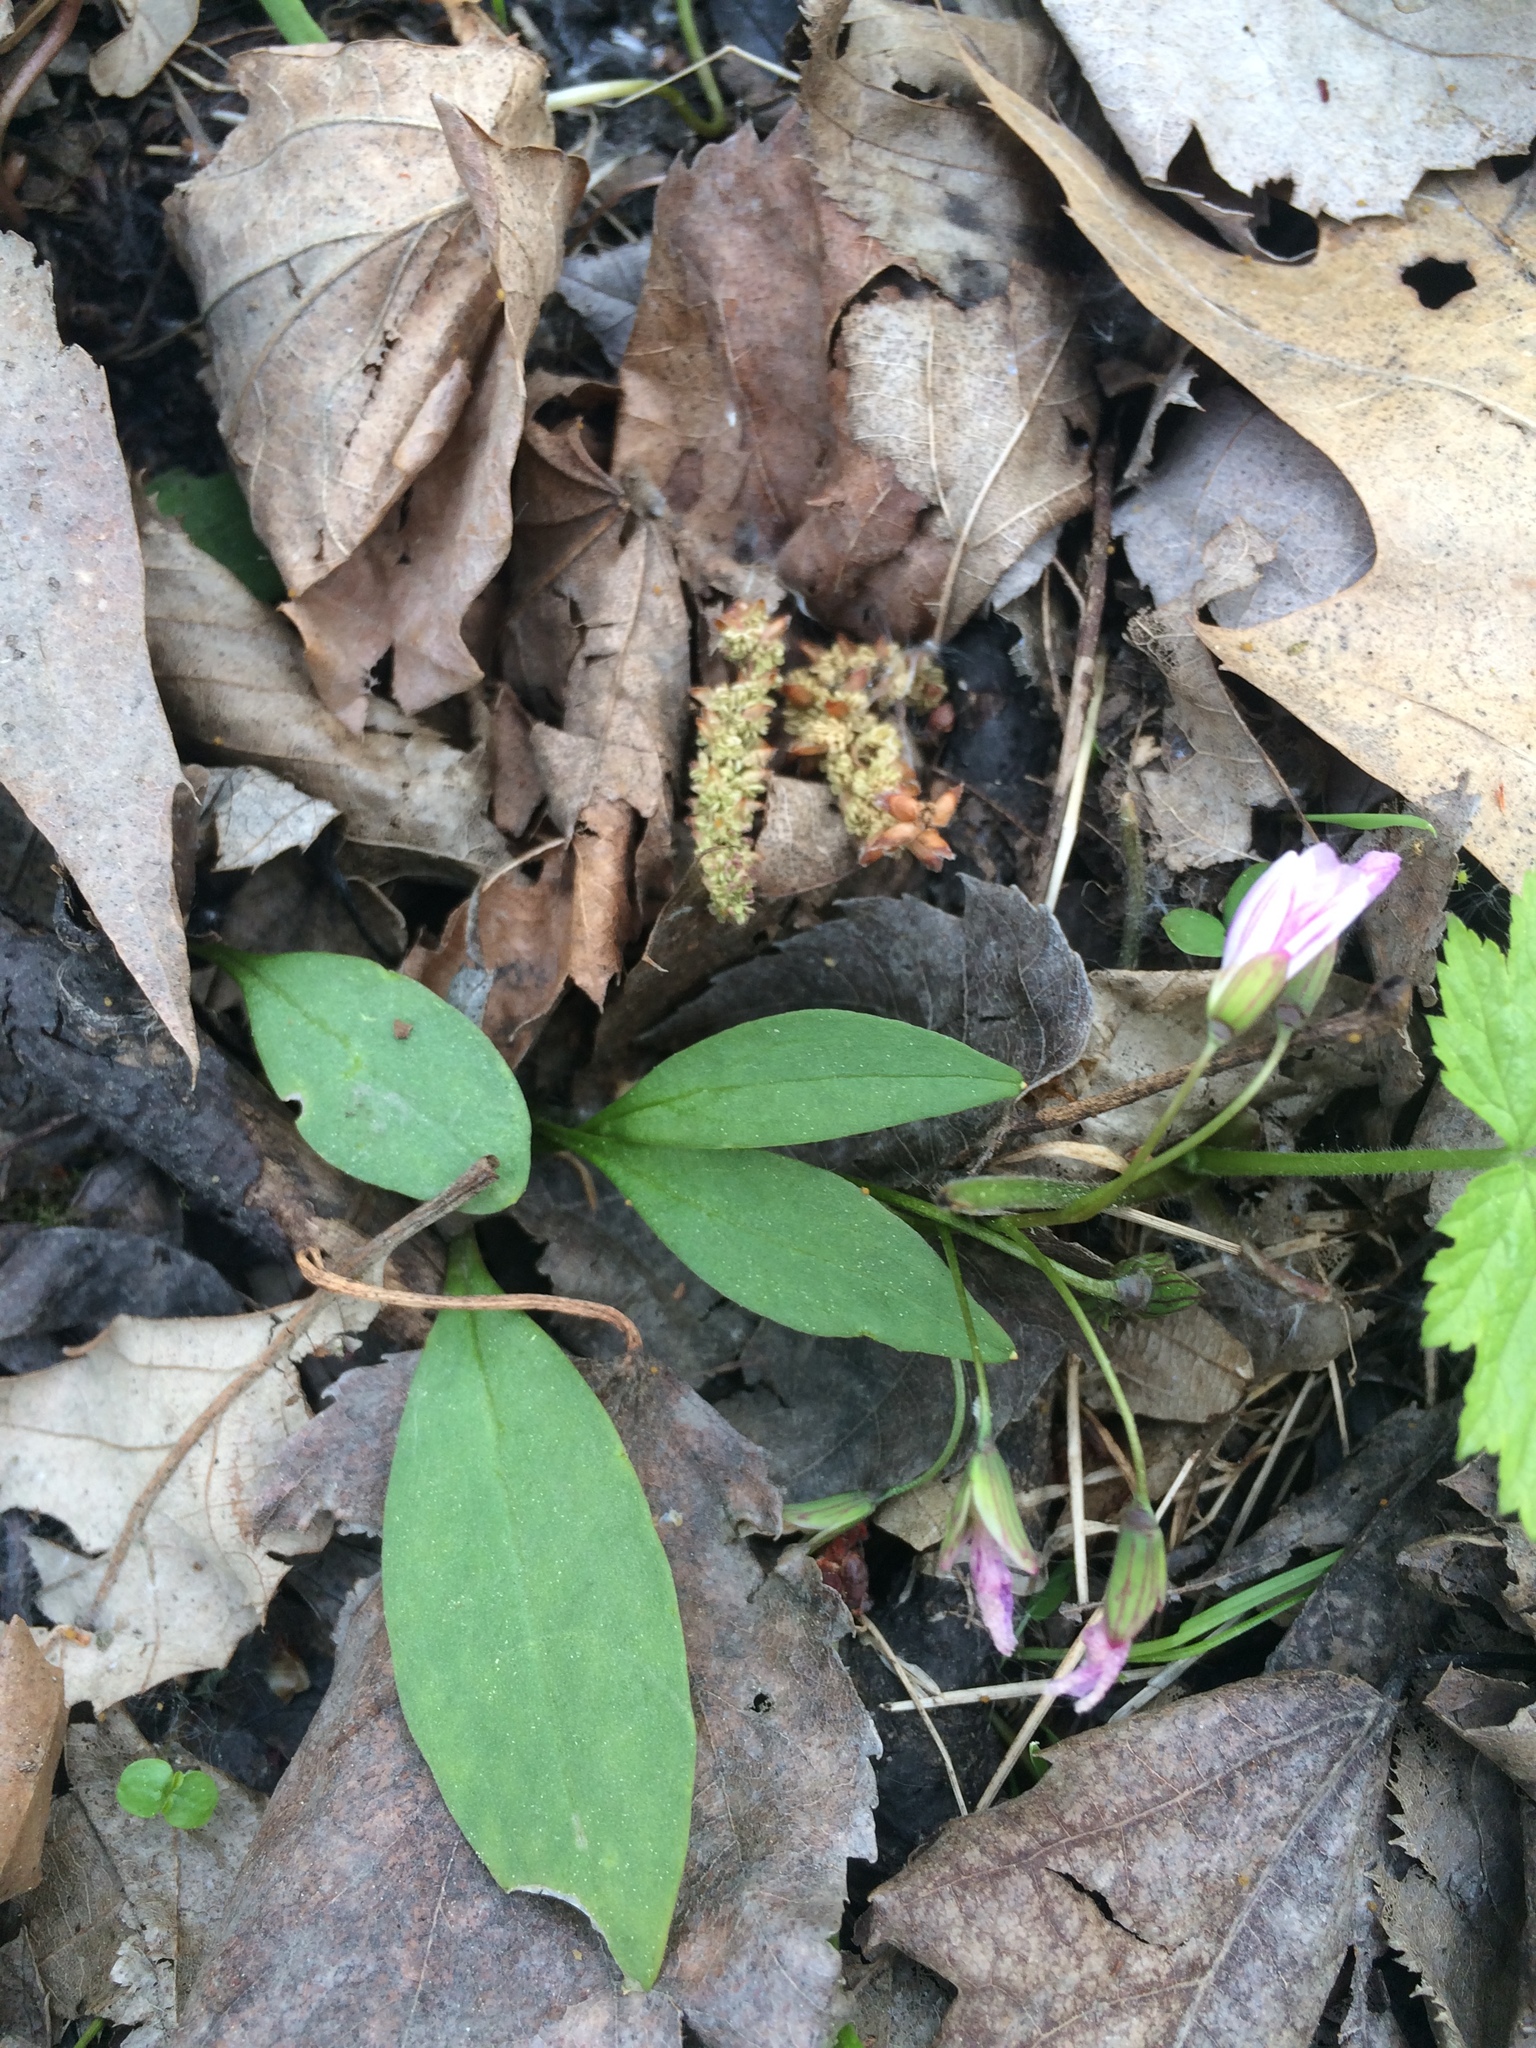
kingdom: Plantae
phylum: Tracheophyta
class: Magnoliopsida
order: Caryophyllales
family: Montiaceae
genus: Claytonia
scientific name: Claytonia caroliniana
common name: Carolina spring beauty
